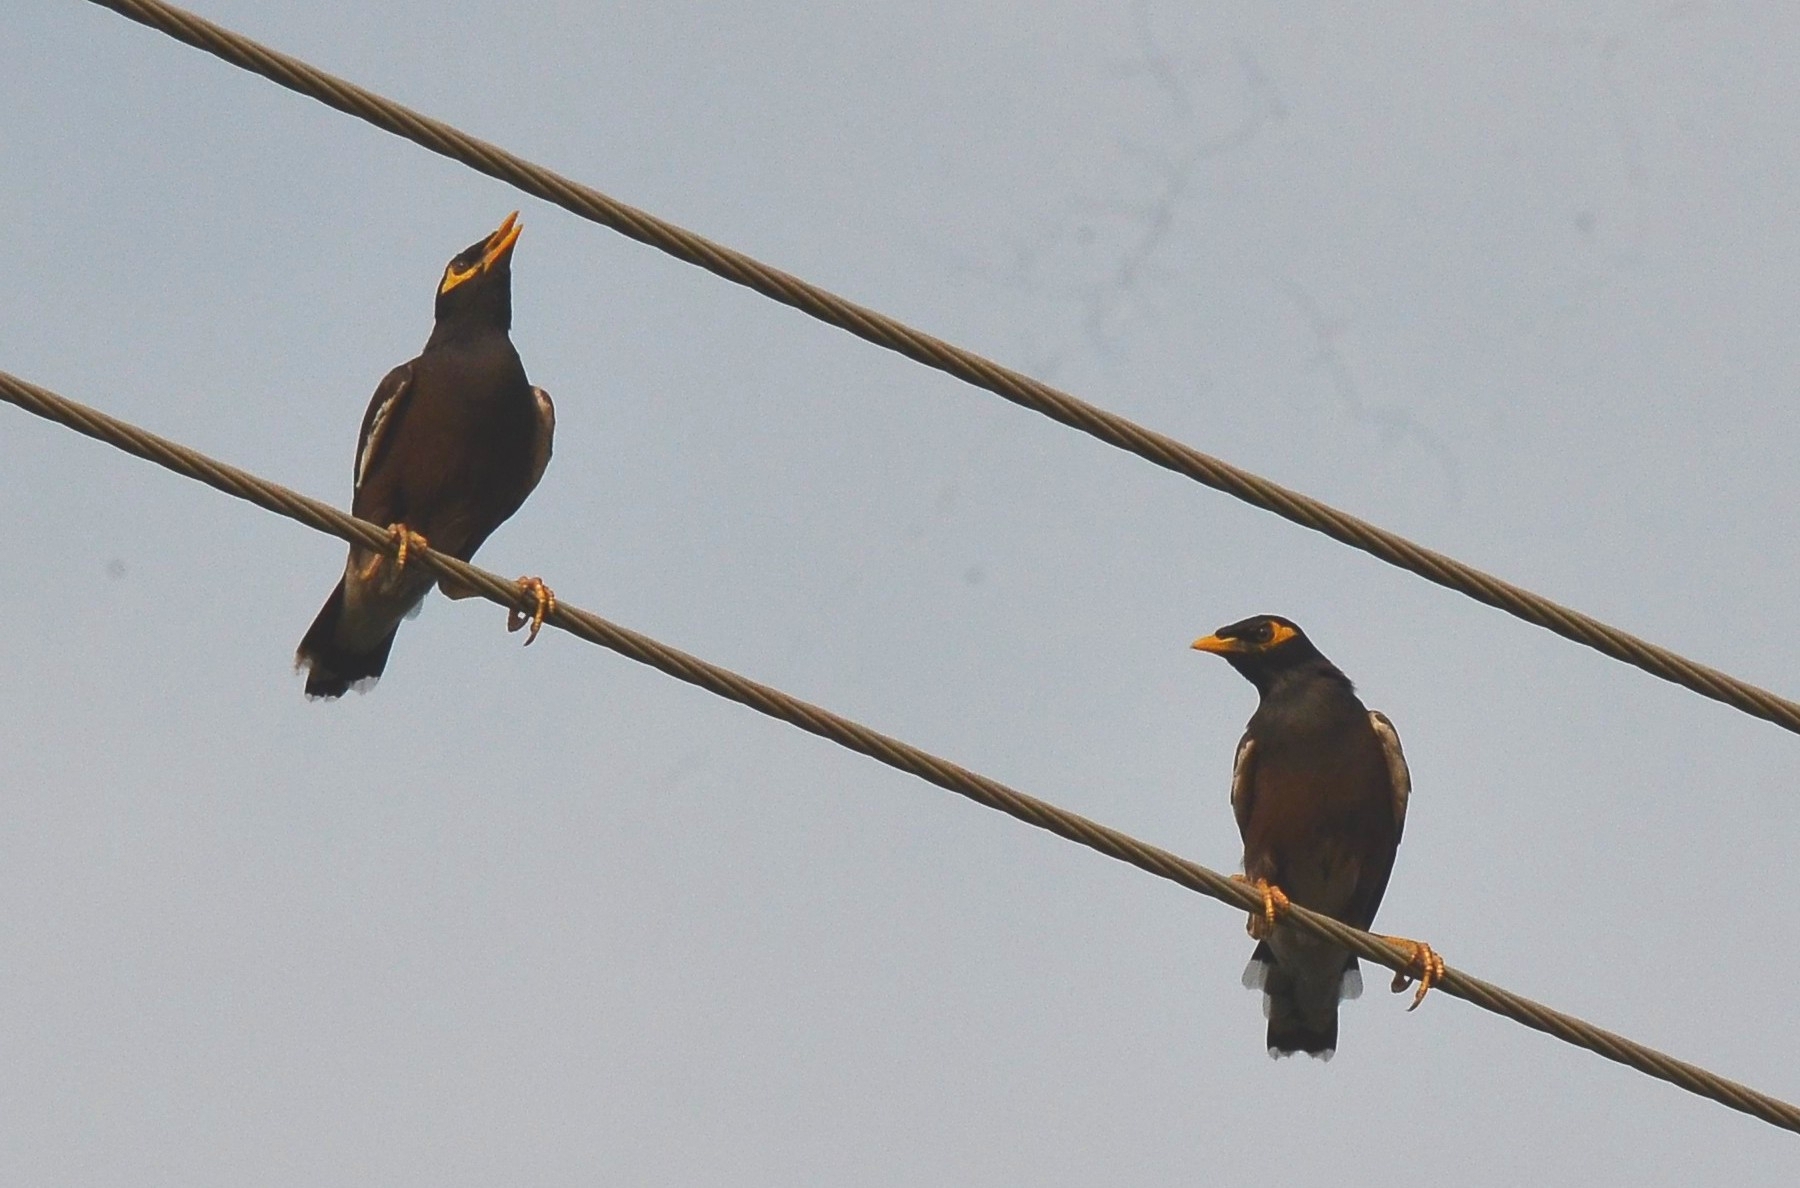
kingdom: Animalia
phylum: Chordata
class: Aves
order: Passeriformes
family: Sturnidae
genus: Acridotheres
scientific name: Acridotheres tristis
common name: Common myna
